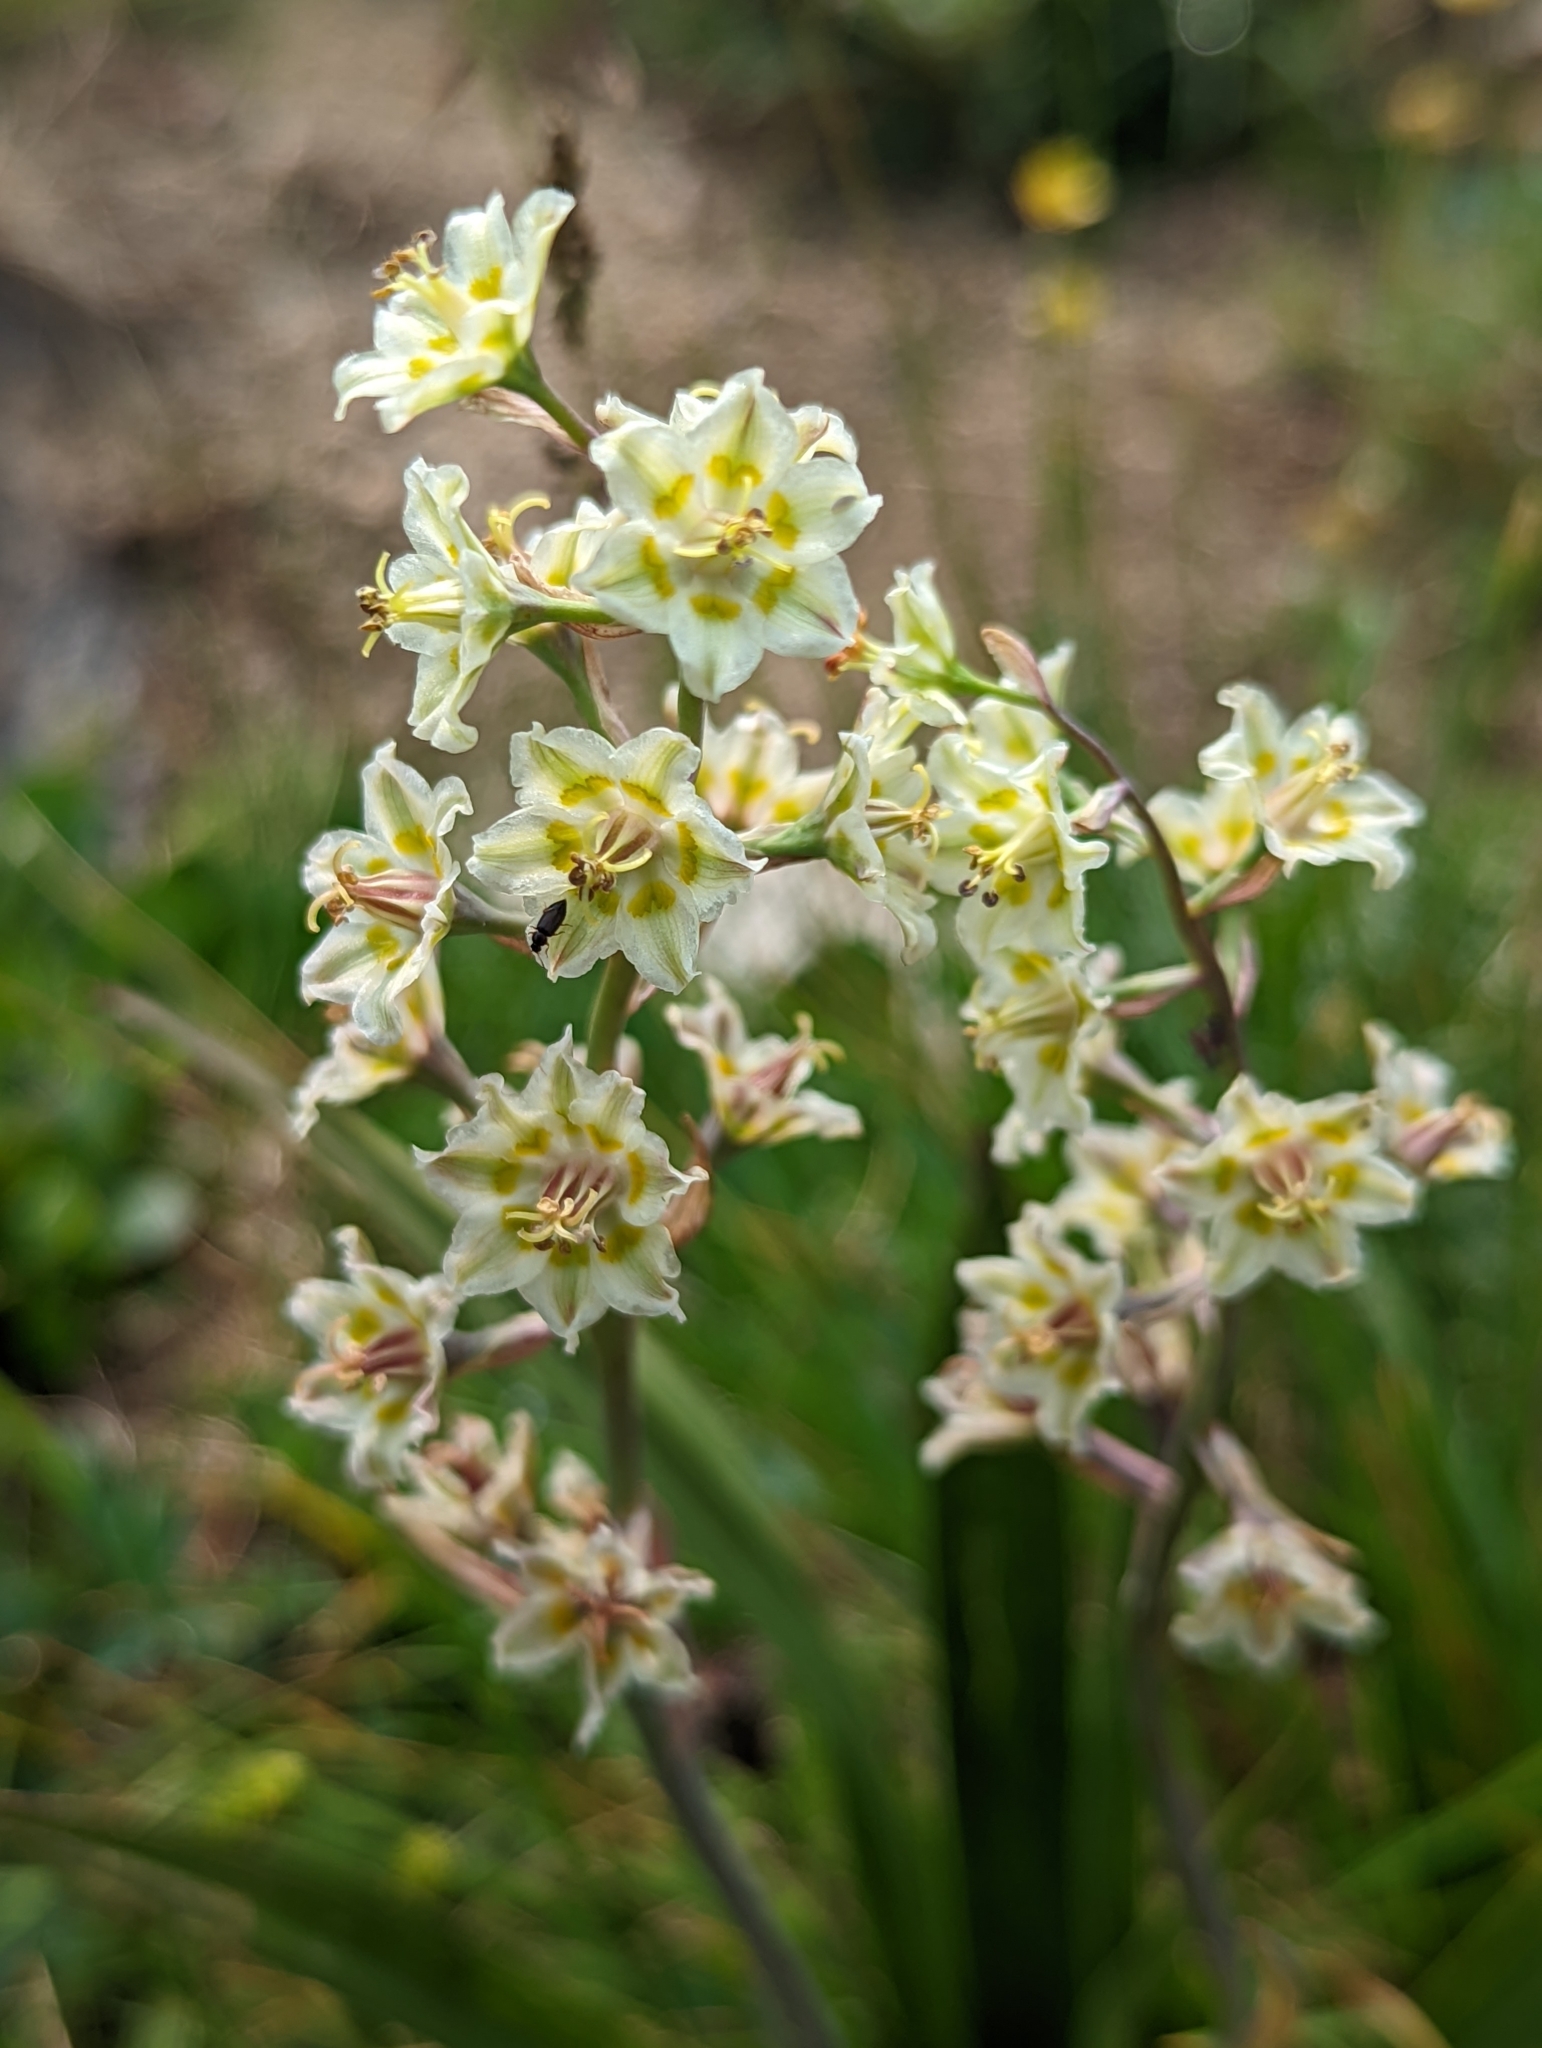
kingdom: Plantae
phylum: Tracheophyta
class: Liliopsida
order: Liliales
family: Melanthiaceae
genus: Anticlea
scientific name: Anticlea elegans
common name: Mountain death camas
